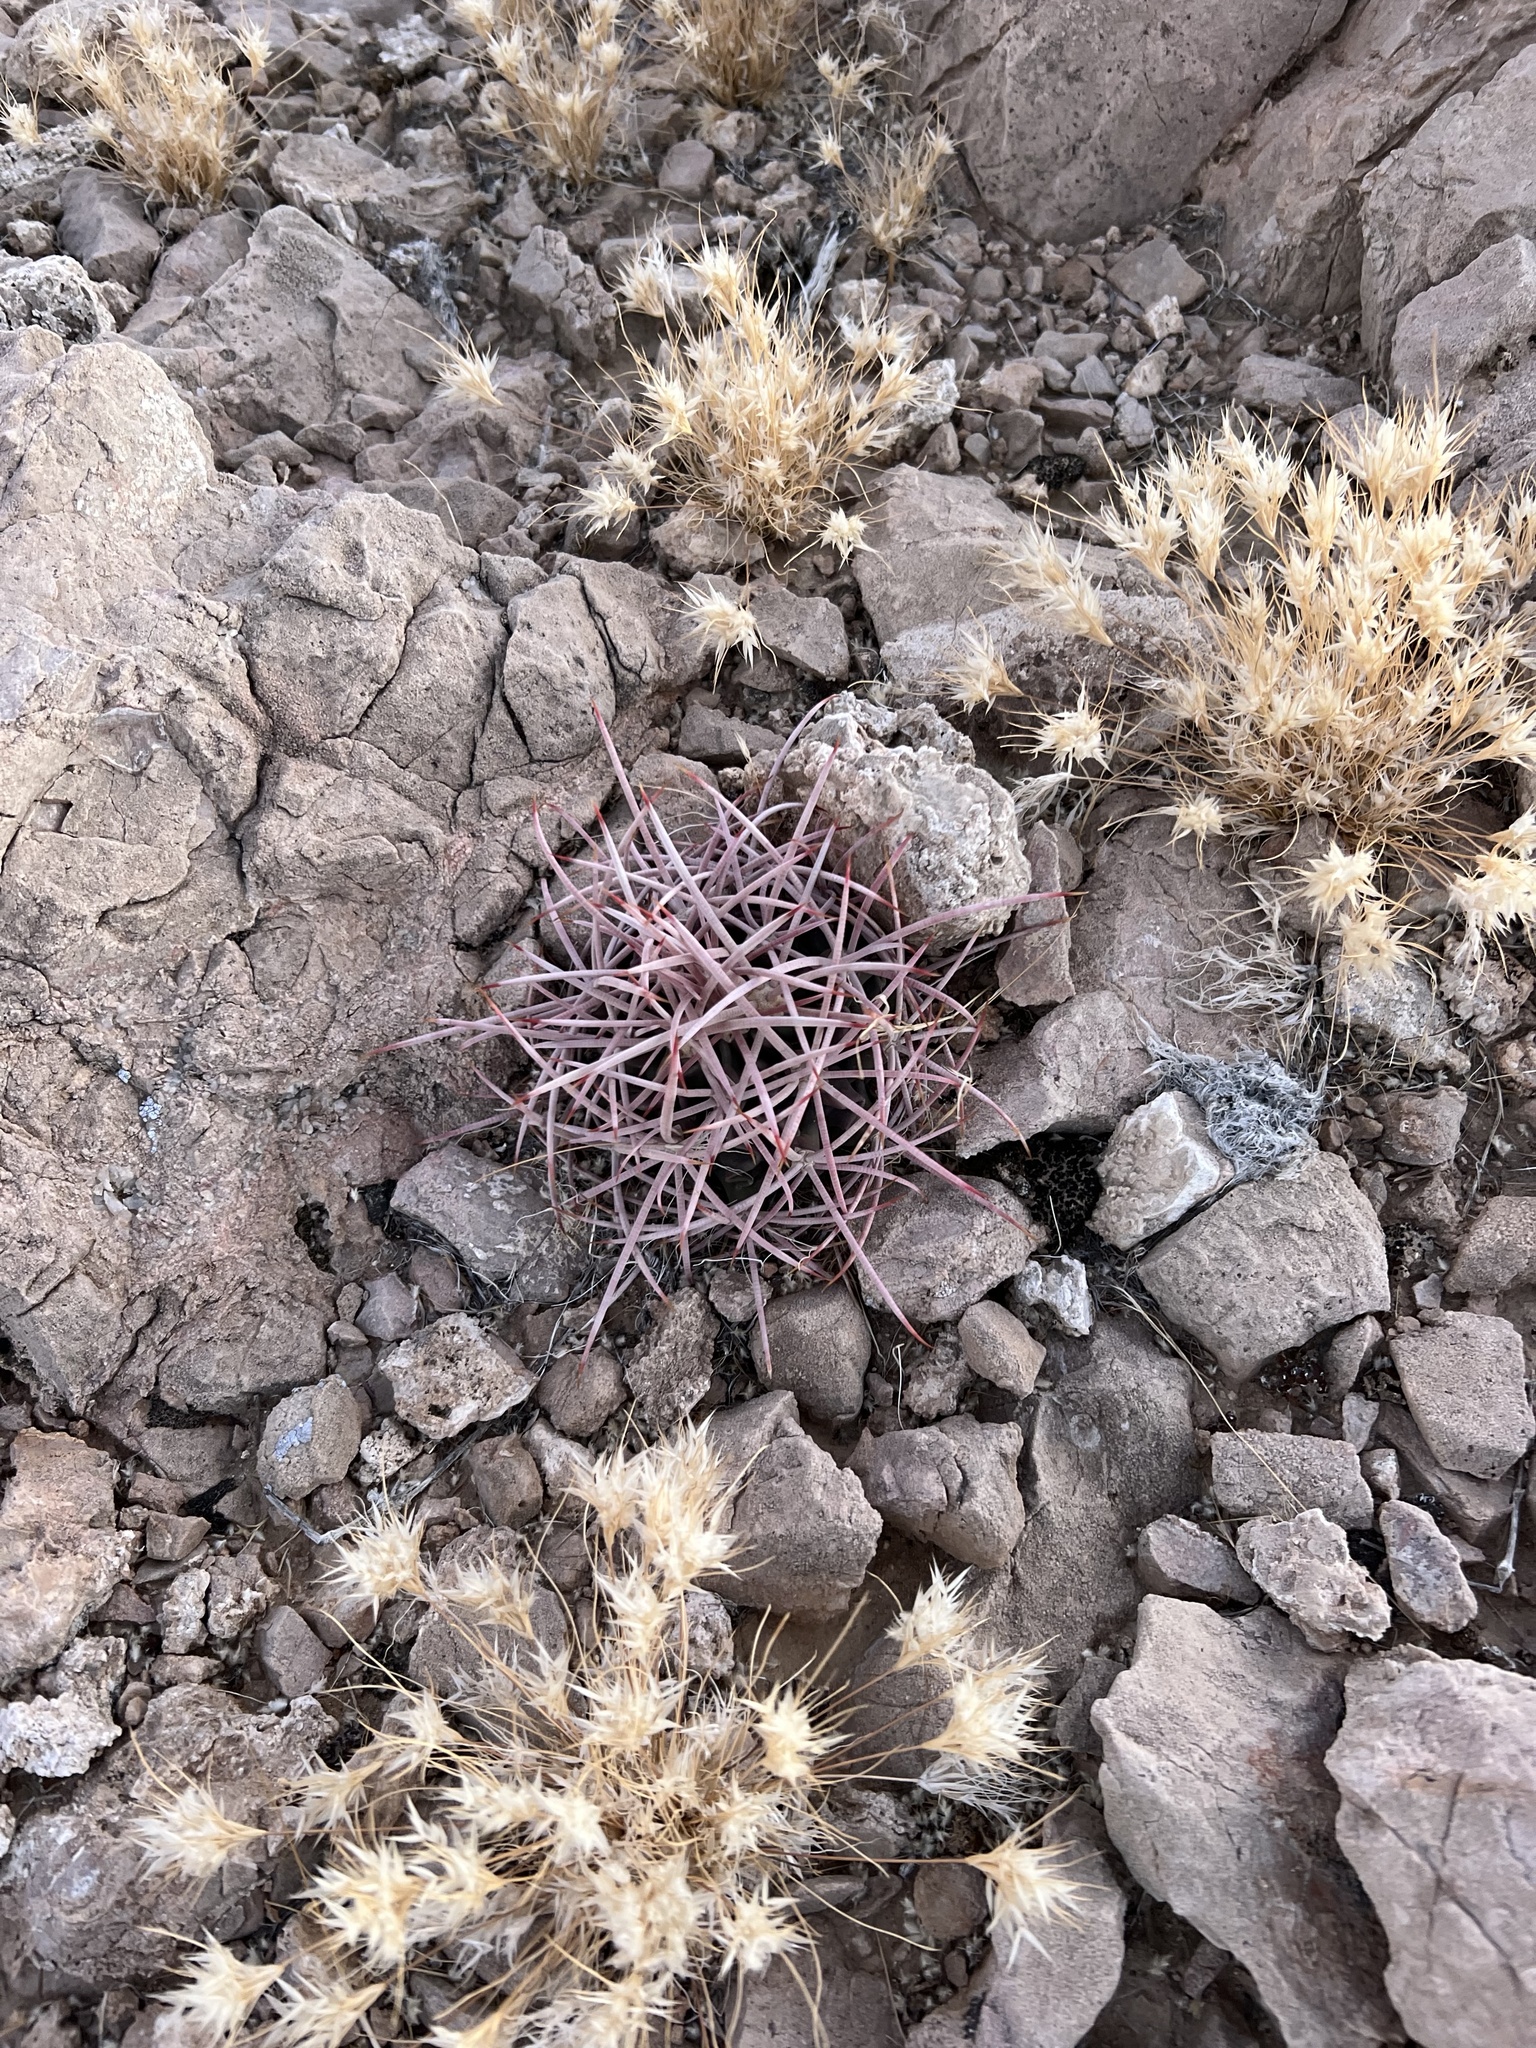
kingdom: Plantae
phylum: Tracheophyta
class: Magnoliopsida
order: Caryophyllales
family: Cactaceae
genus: Echinocactus
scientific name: Echinocactus polycephalus
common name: Cottontop cactus
